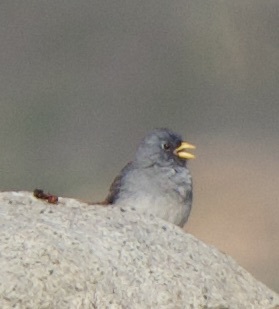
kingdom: Animalia
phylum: Chordata
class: Aves
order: Passeriformes
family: Thraupidae
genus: Porphyrospiza
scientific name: Porphyrospiza alaudina
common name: Band-tailed sierra finch
